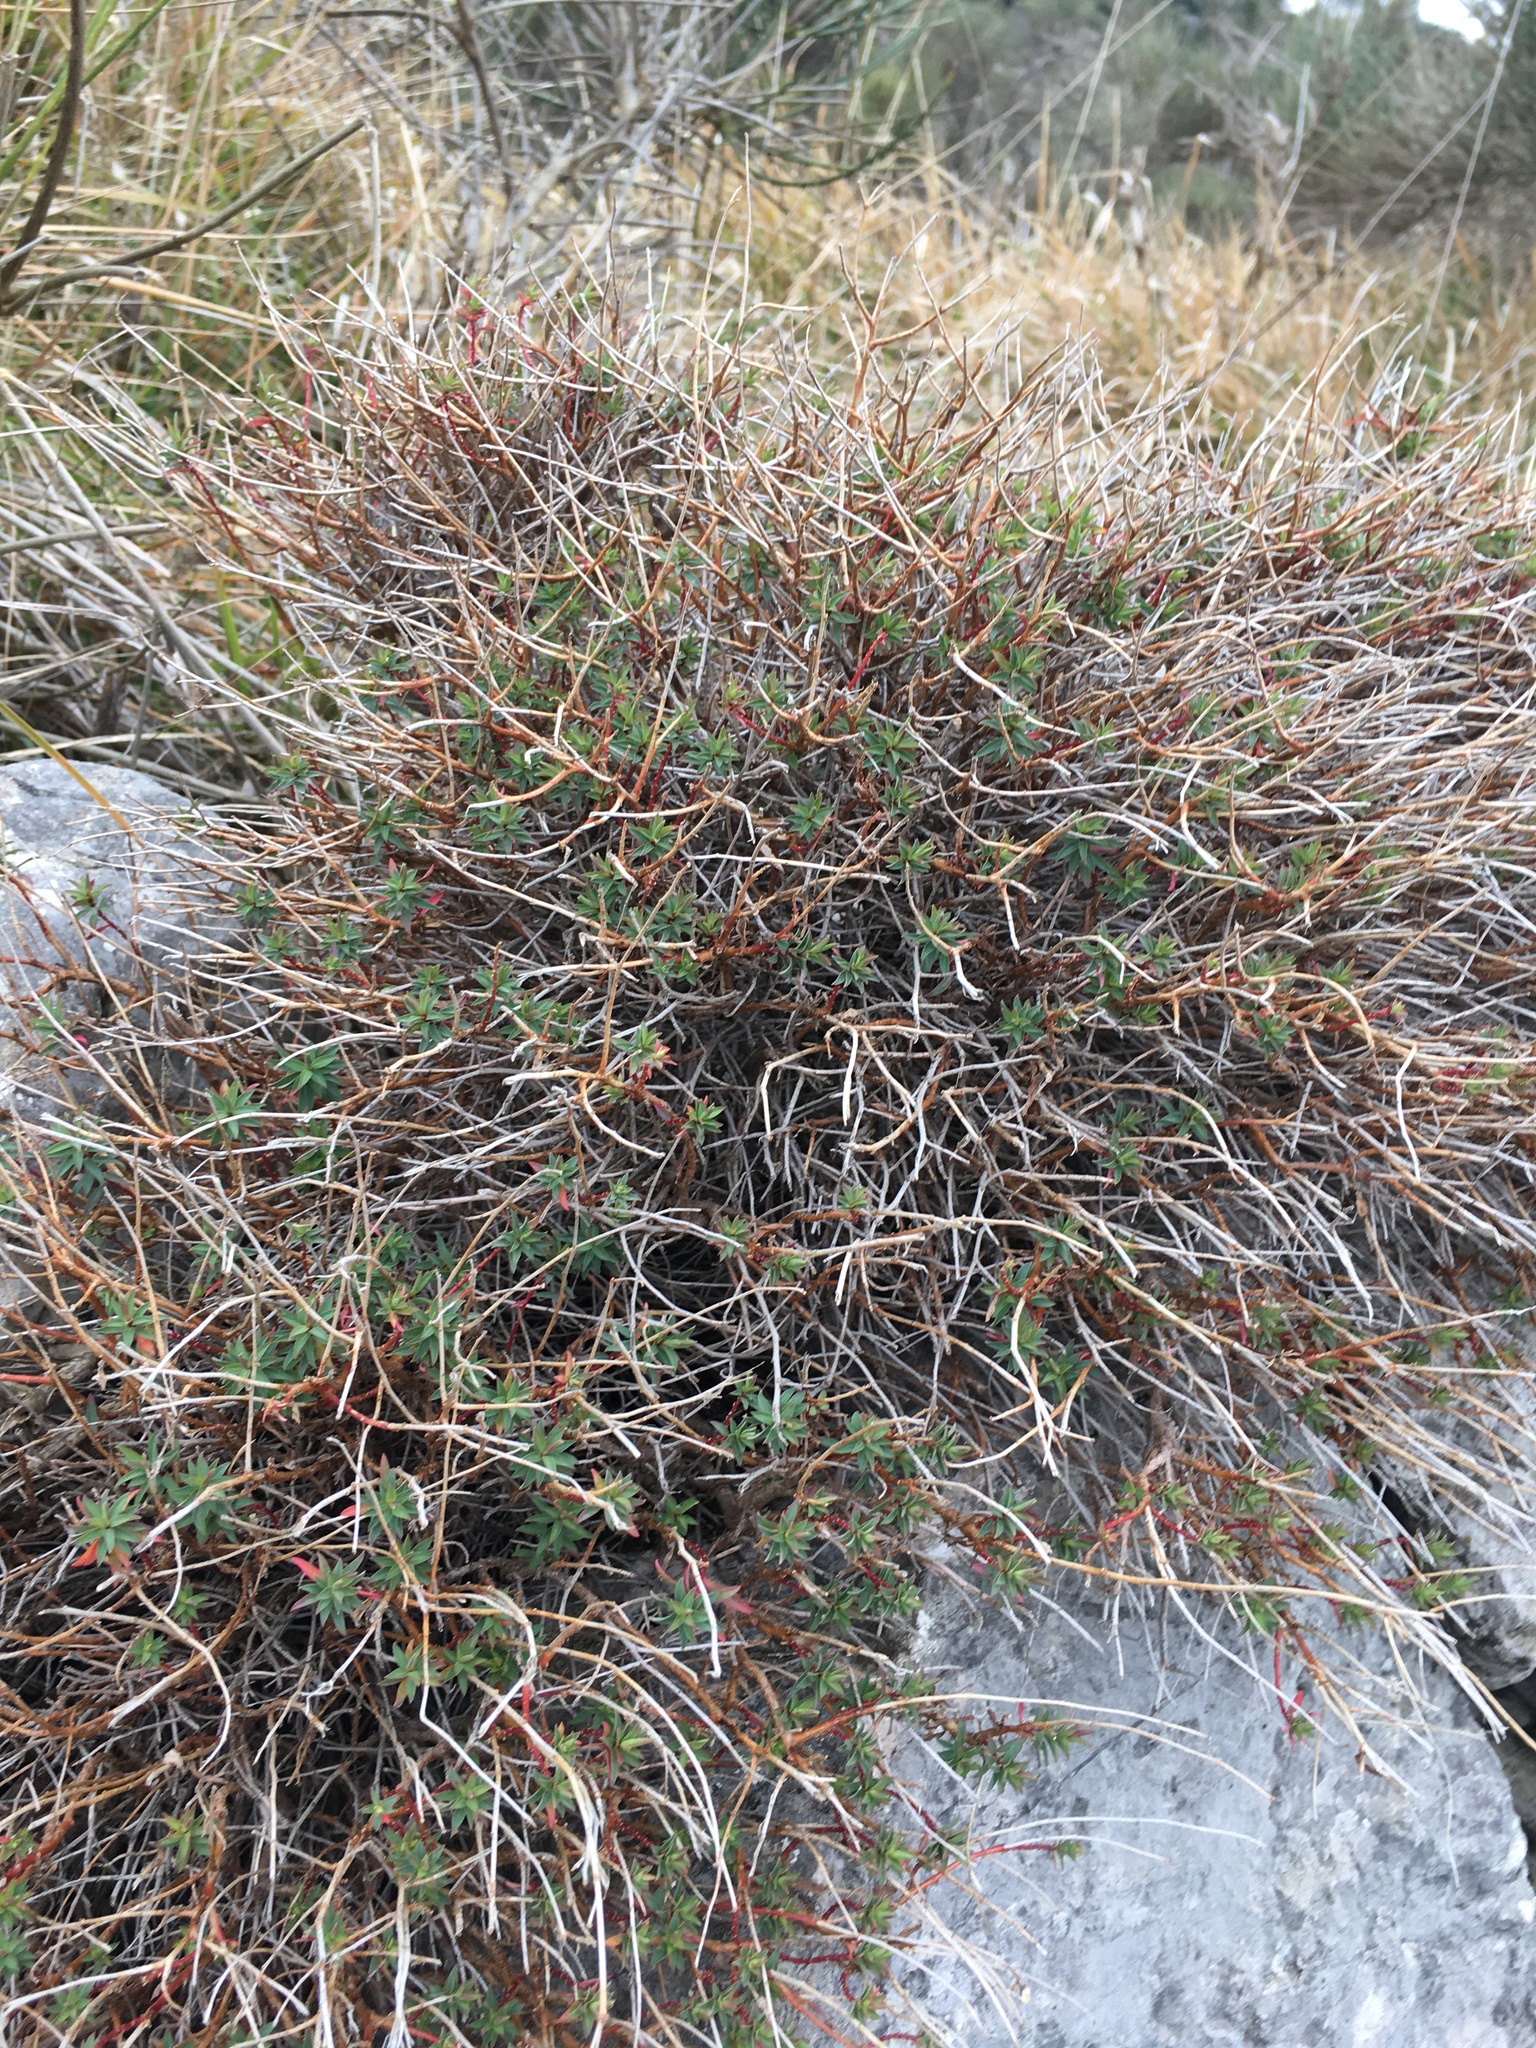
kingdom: Plantae
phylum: Tracheophyta
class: Magnoliopsida
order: Malpighiales
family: Euphorbiaceae
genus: Euphorbia
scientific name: Euphorbia spinosa
